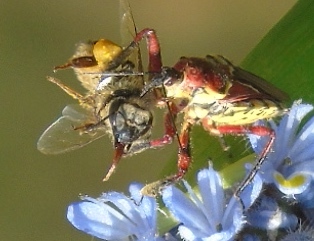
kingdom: Animalia
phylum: Arthropoda
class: Insecta
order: Hemiptera
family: Reduviidae
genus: Apiomerus
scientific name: Apiomerus flaviventris
